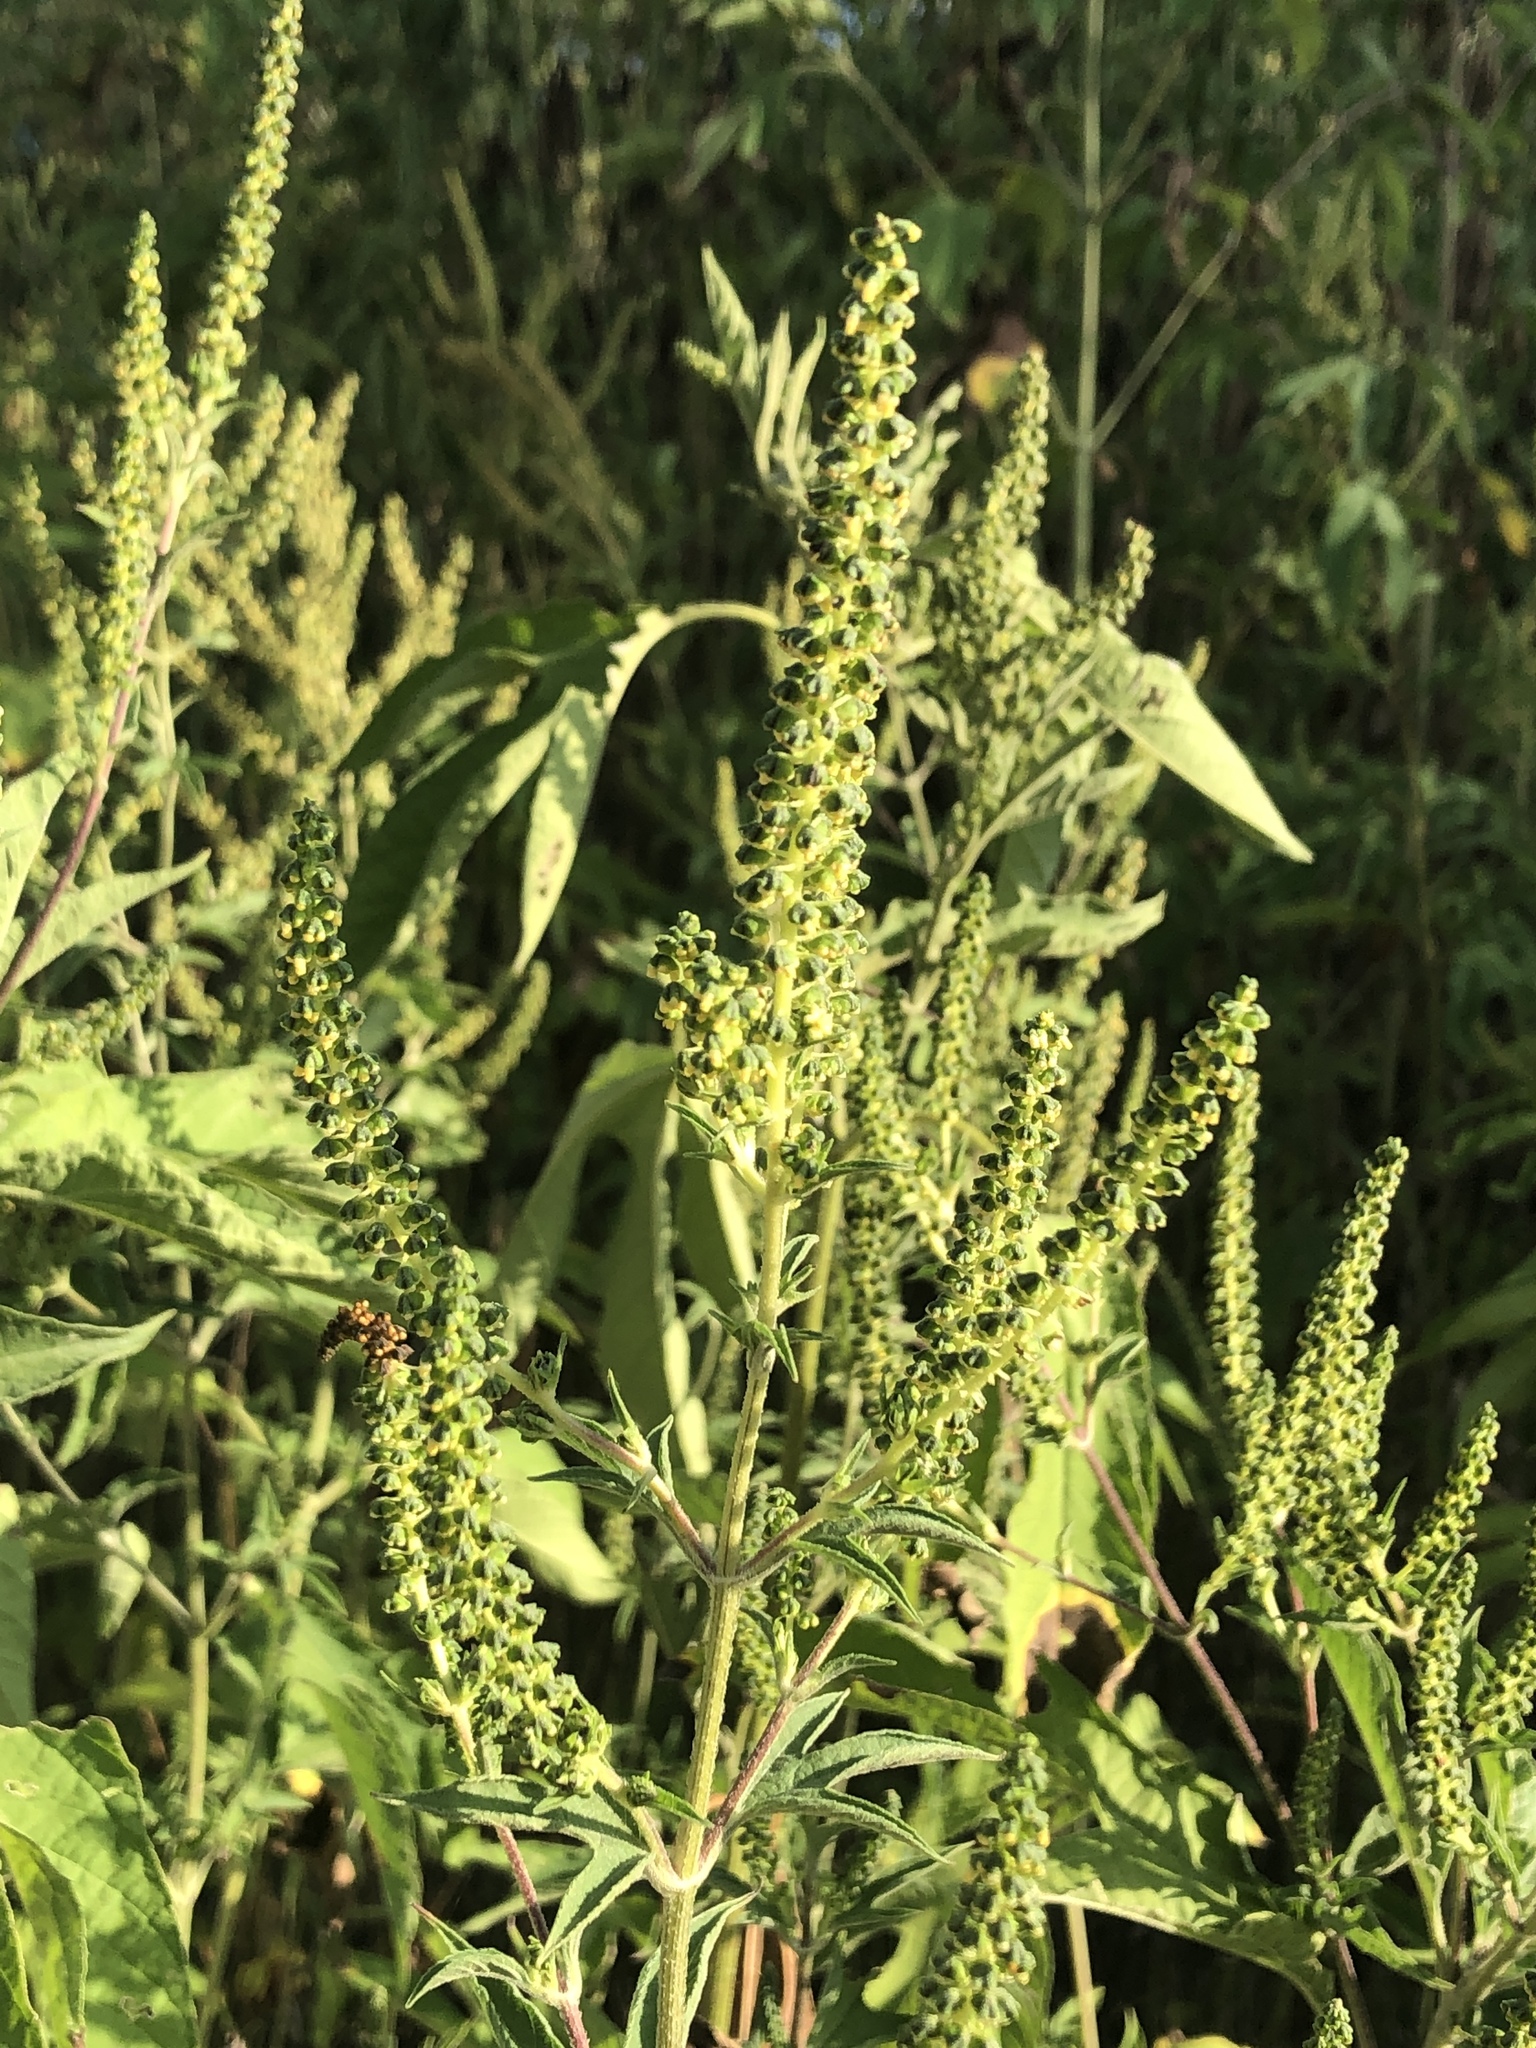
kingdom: Plantae
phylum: Tracheophyta
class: Magnoliopsida
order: Asterales
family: Asteraceae
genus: Ambrosia
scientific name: Ambrosia trifida
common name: Giant ragweed
